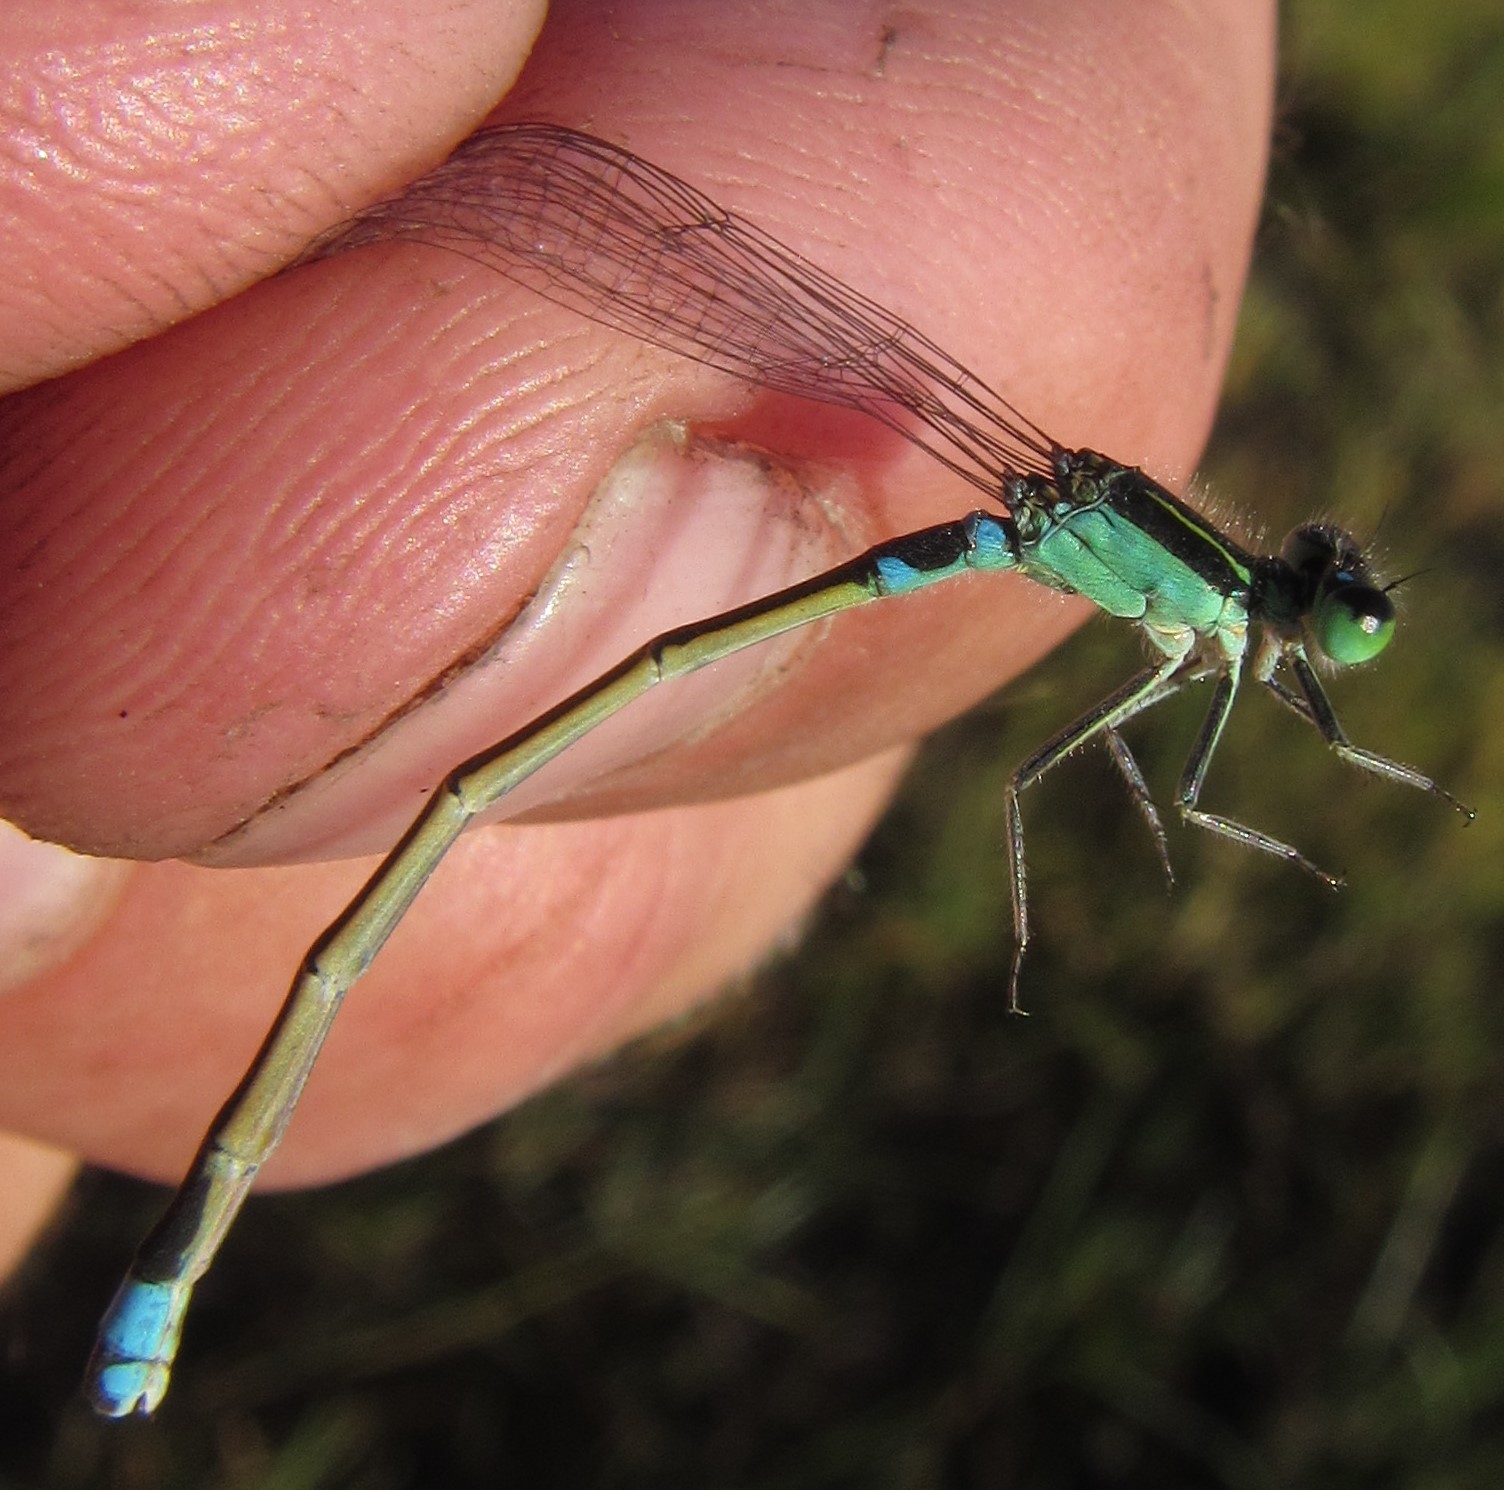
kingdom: Animalia
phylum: Arthropoda
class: Insecta
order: Odonata
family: Coenagrionidae
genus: Ischnura
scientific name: Ischnura senegalensis
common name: Tropical bluetail
